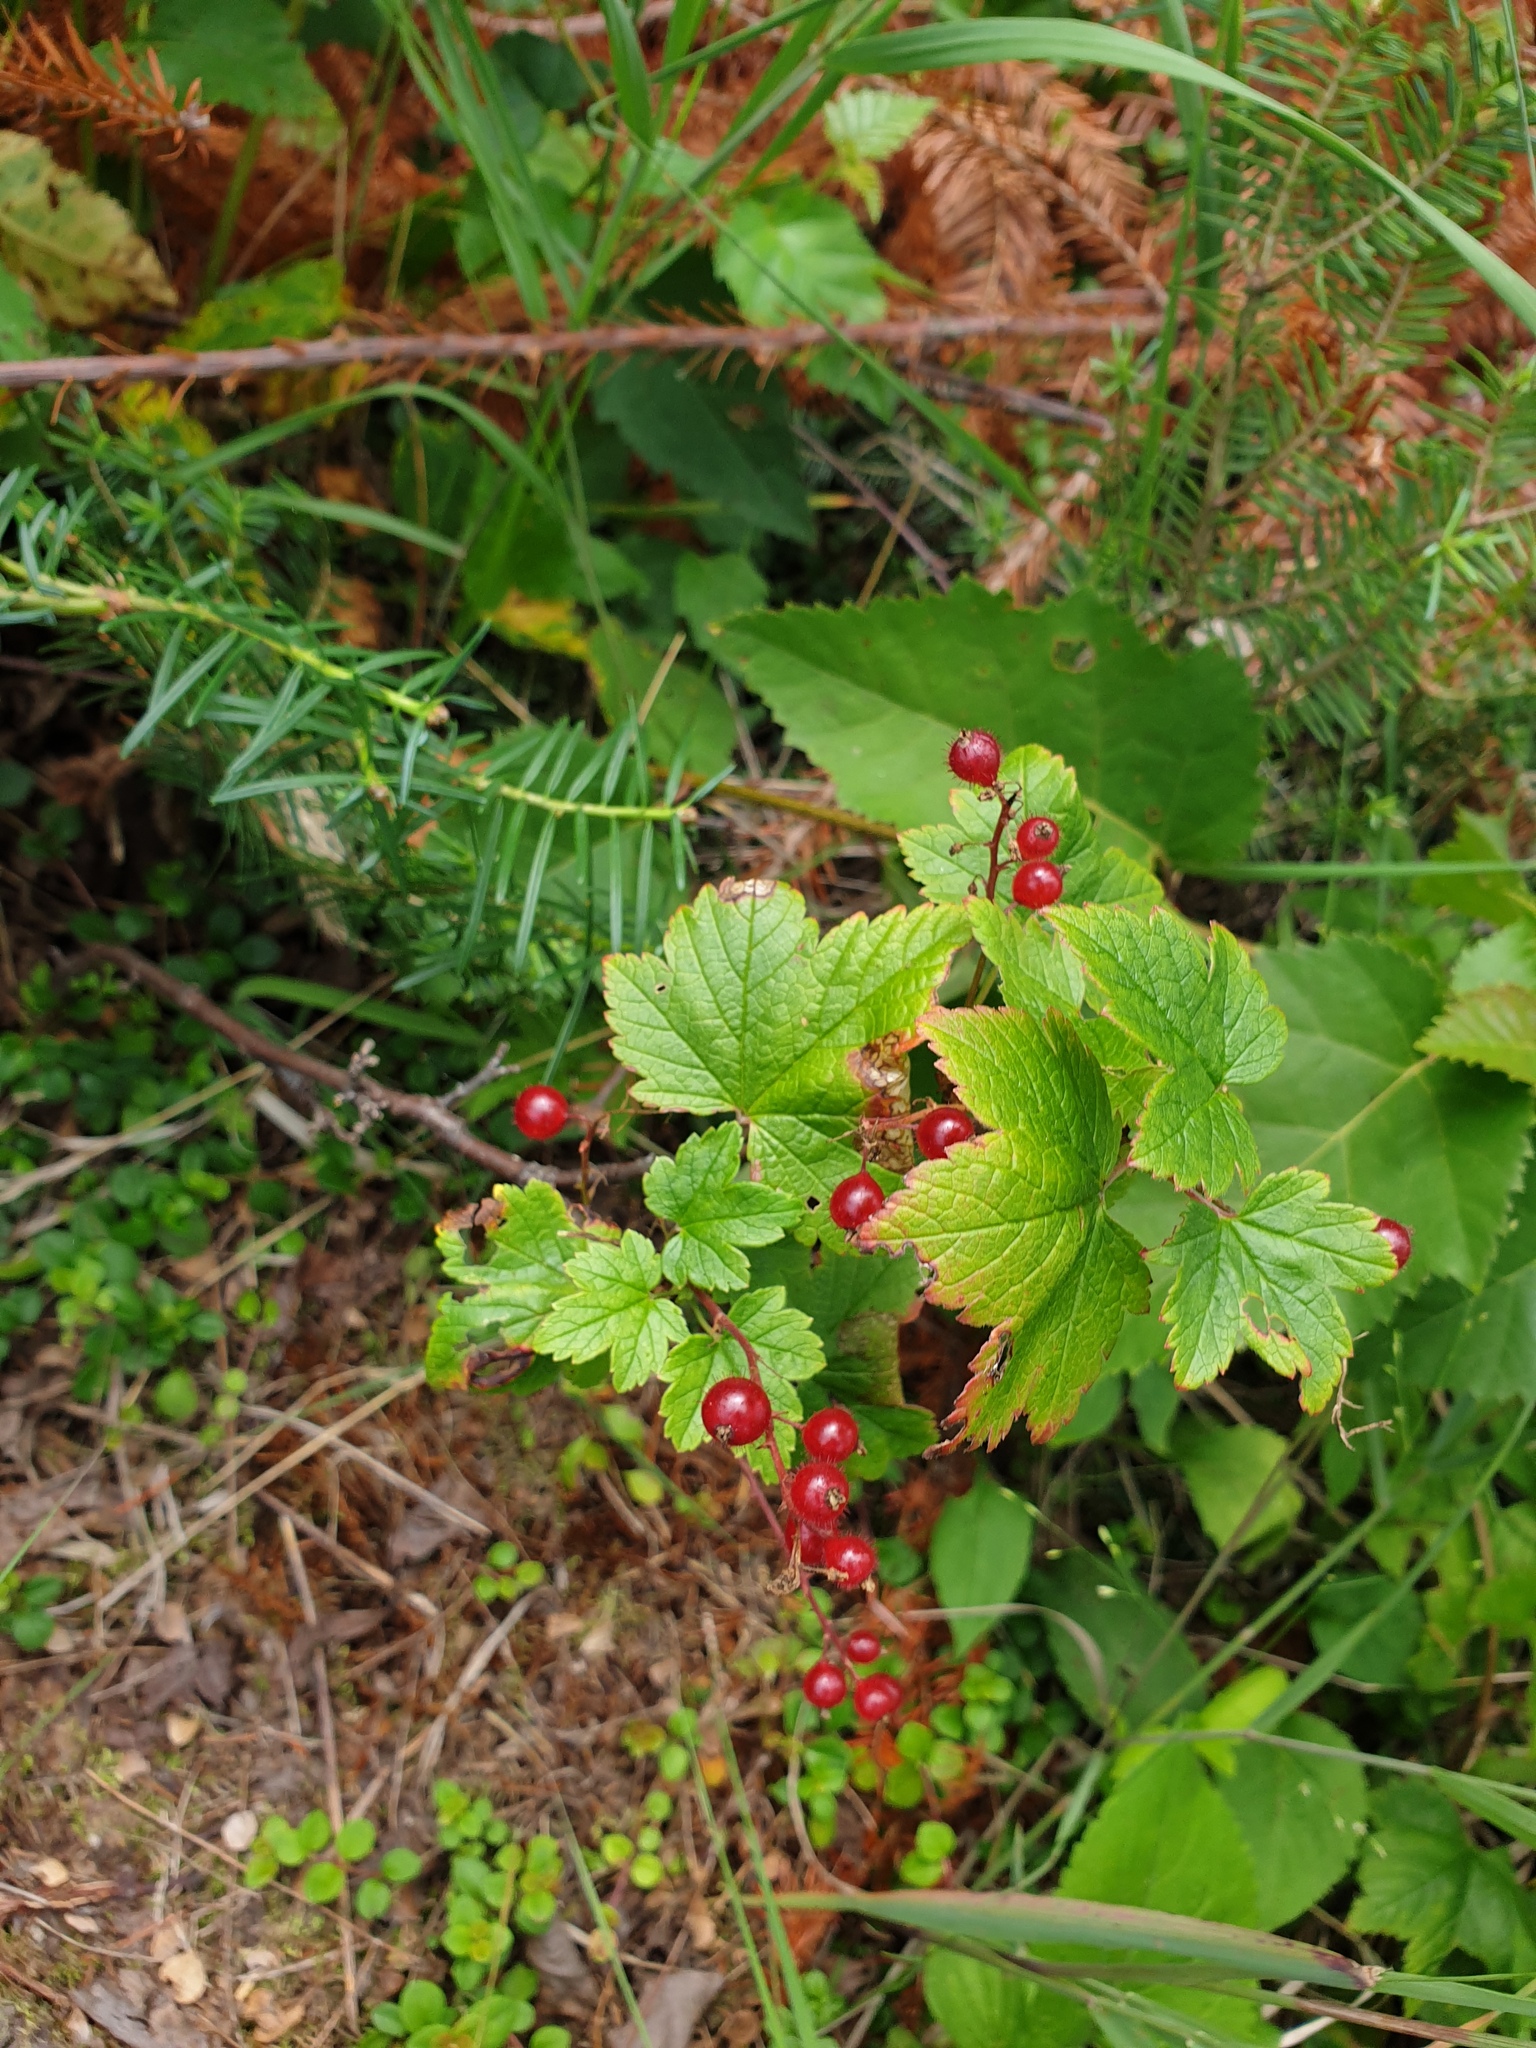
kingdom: Plantae
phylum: Tracheophyta
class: Magnoliopsida
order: Saxifragales
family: Grossulariaceae
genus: Ribes
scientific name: Ribes glandulosum
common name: Skunk currant
